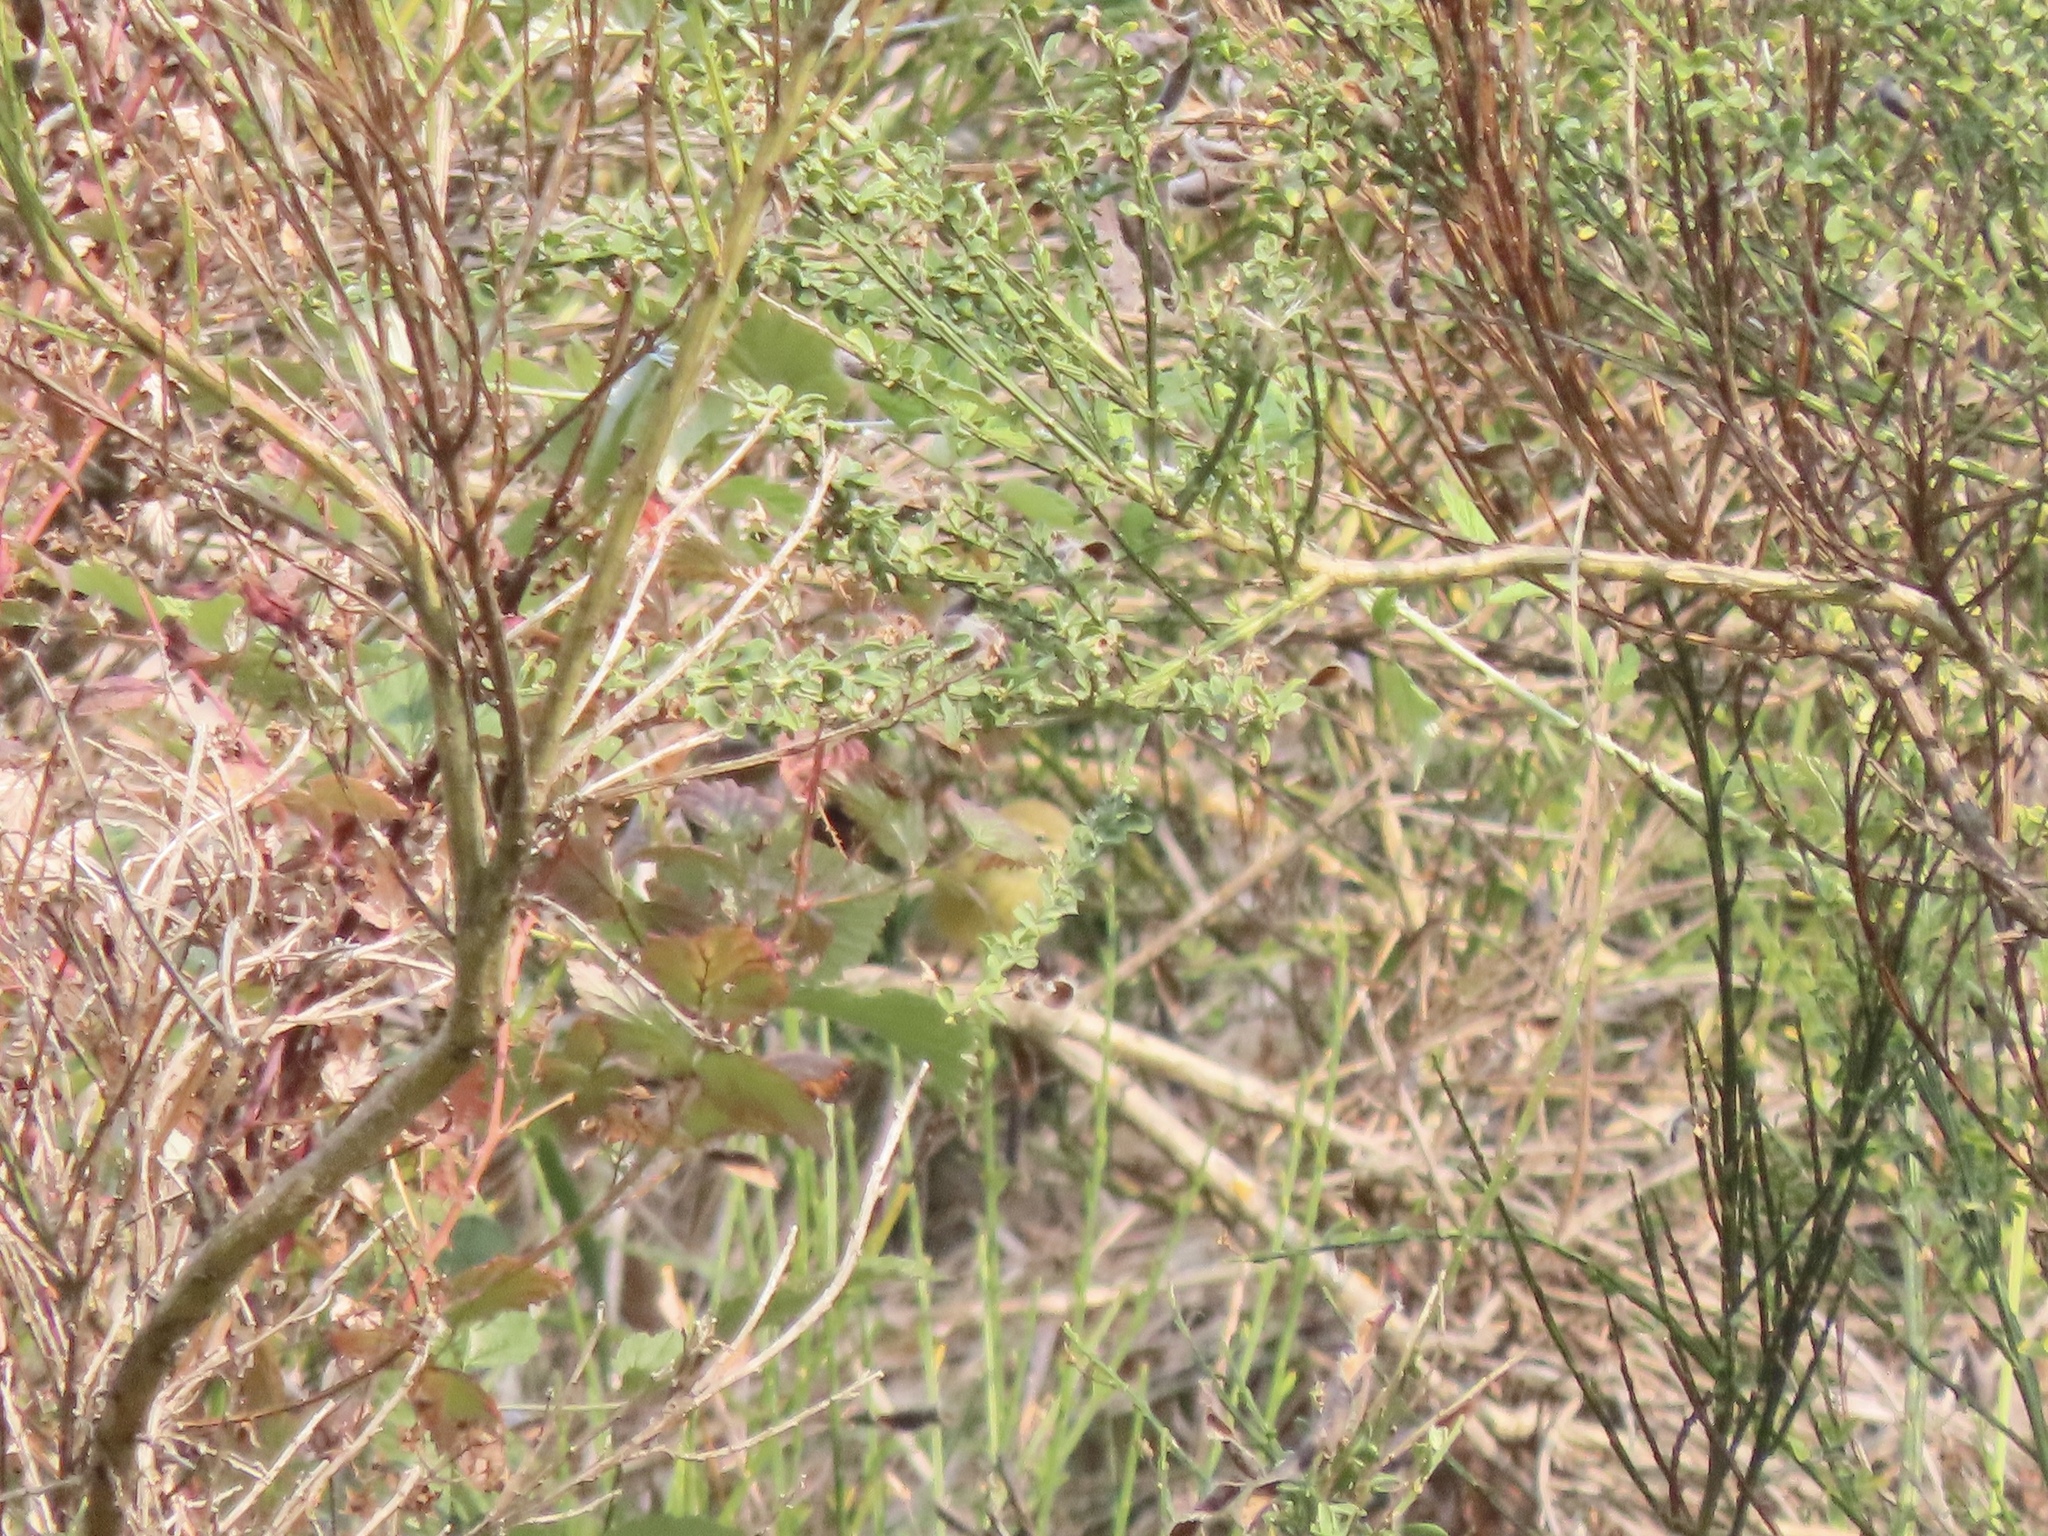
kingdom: Animalia
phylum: Chordata
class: Aves
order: Passeriformes
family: Parulidae
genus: Leiothlypis
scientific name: Leiothlypis celata
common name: Orange-crowned warbler
